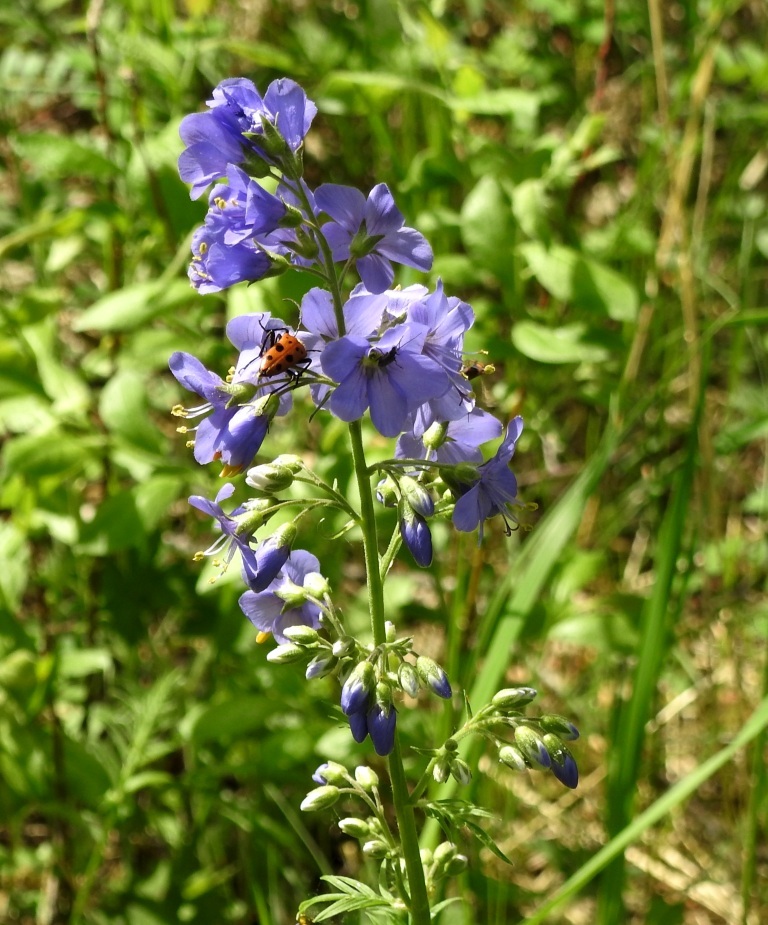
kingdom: Plantae
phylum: Tracheophyta
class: Magnoliopsida
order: Ericales
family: Polemoniaceae
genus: Polemonium
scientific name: Polemonium caeruleum
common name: Jacob's-ladder
